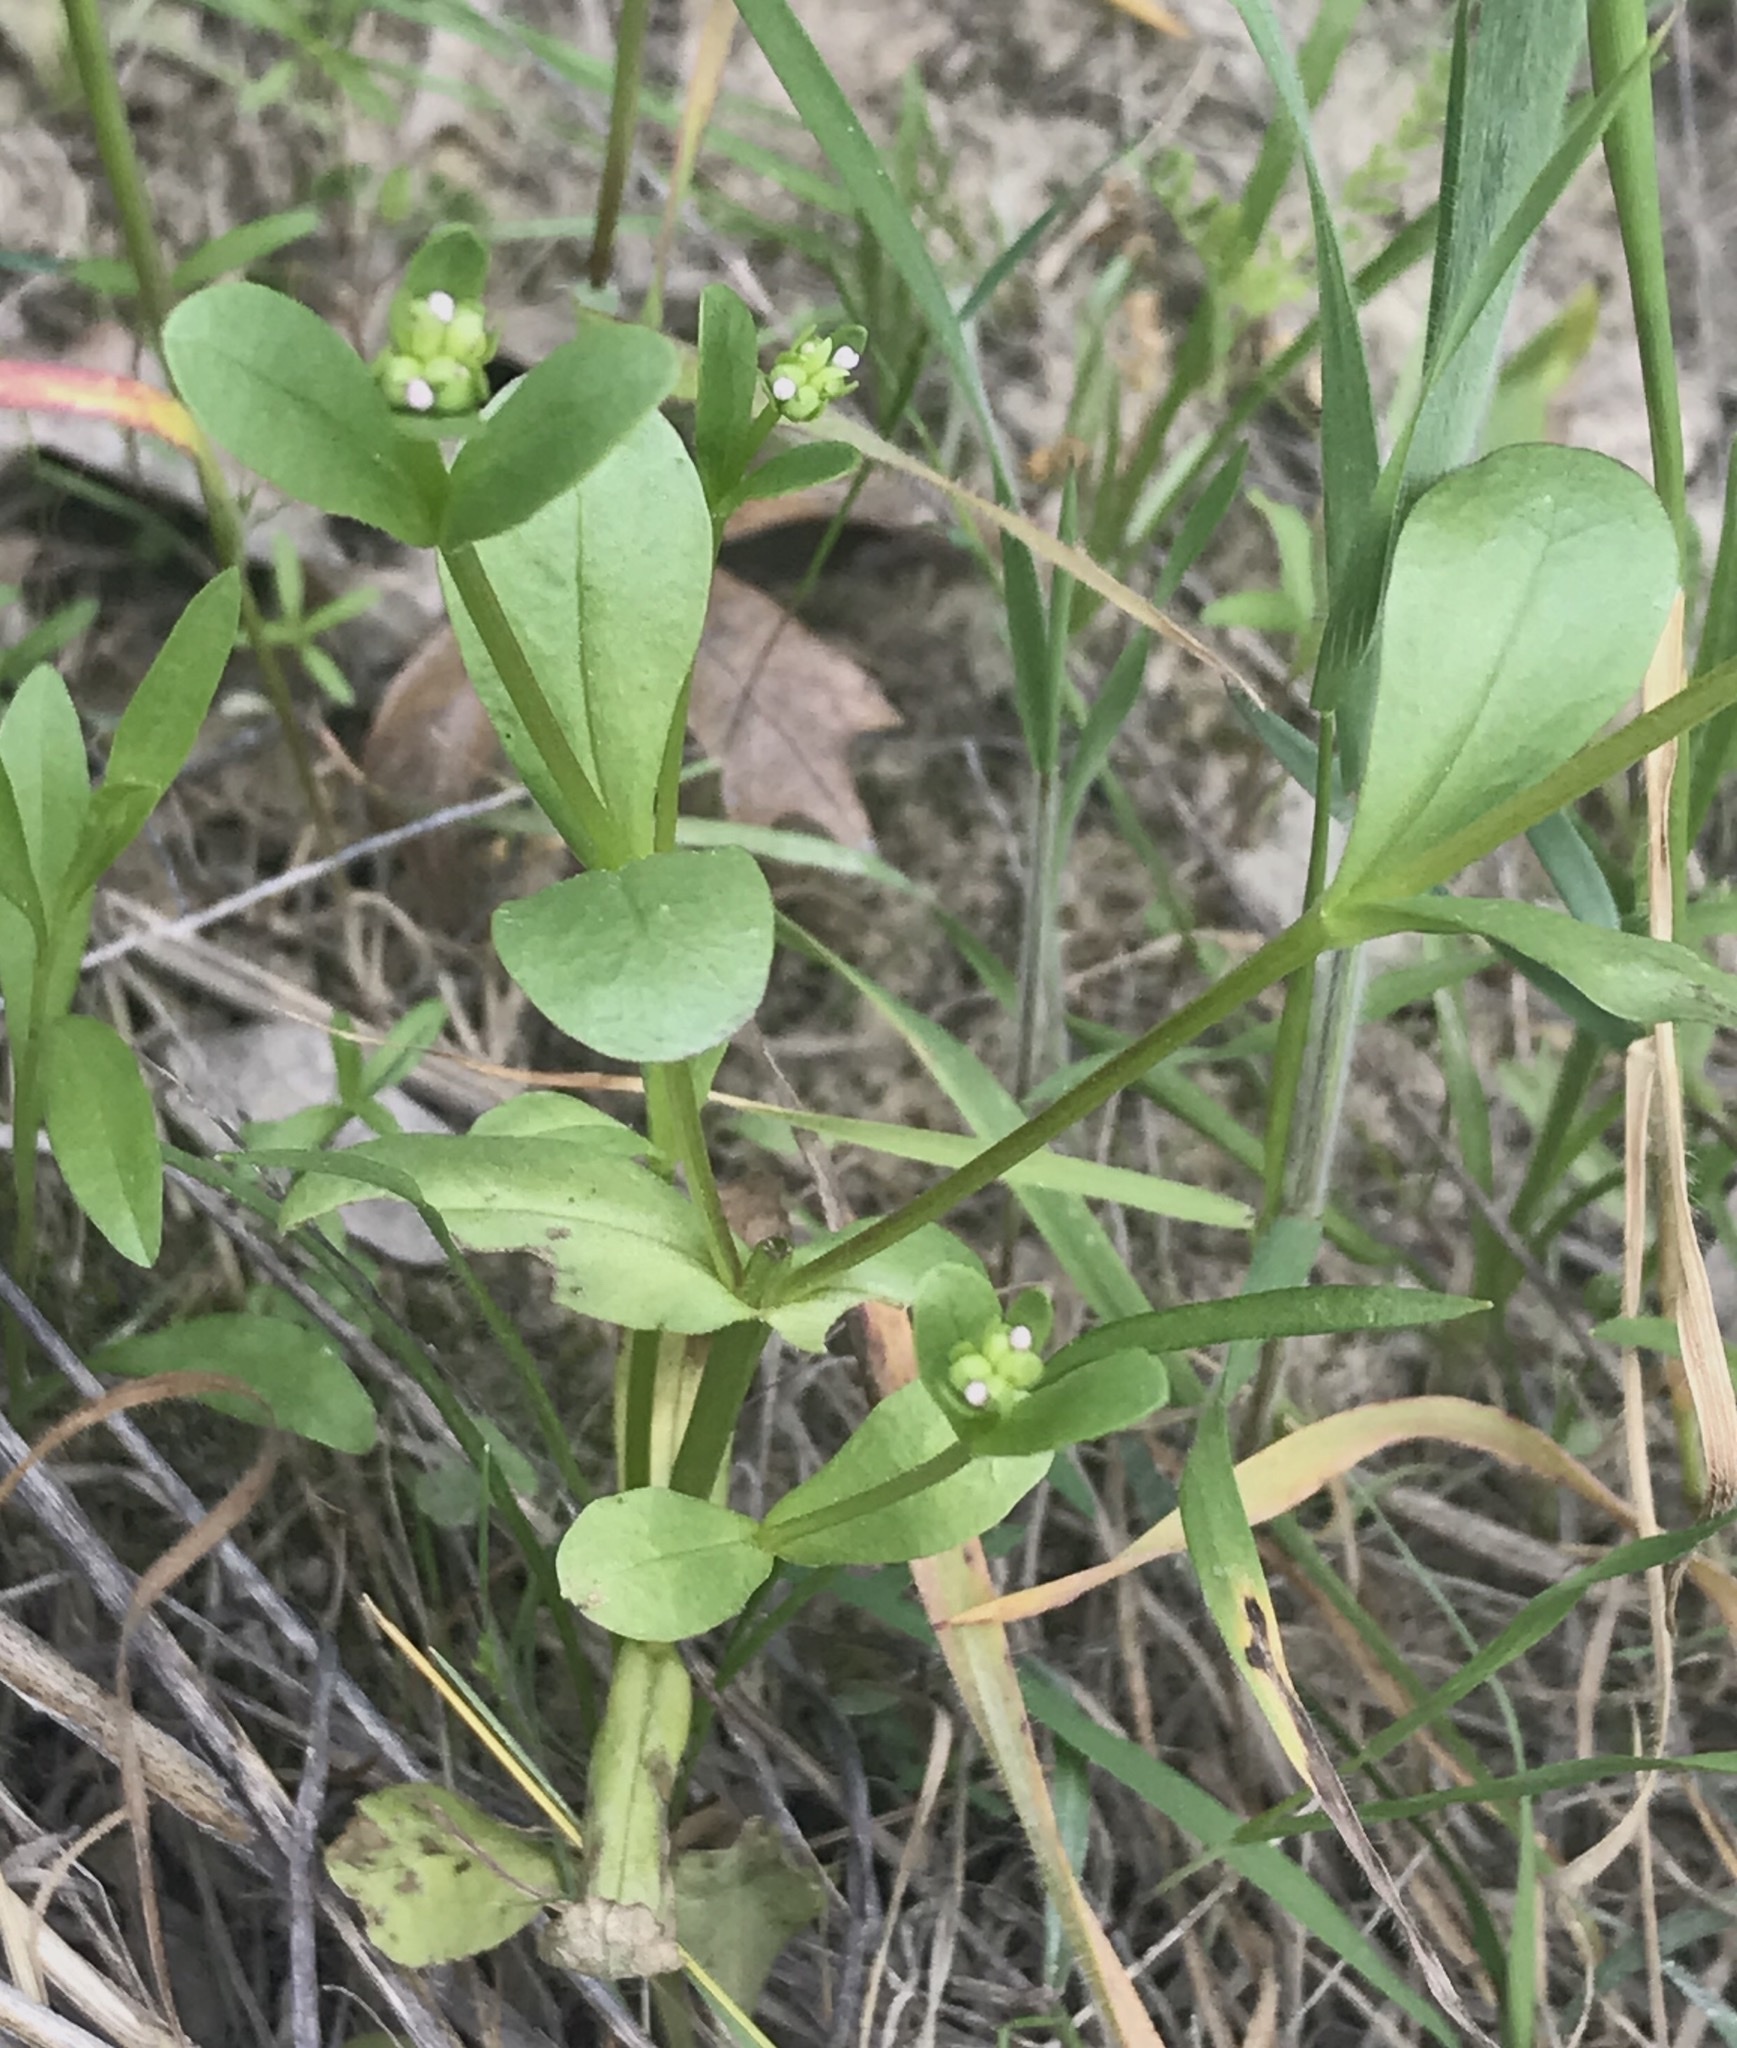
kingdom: Plantae
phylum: Tracheophyta
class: Magnoliopsida
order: Dipsacales
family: Caprifoliaceae
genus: Valerianella
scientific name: Valerianella radiata
